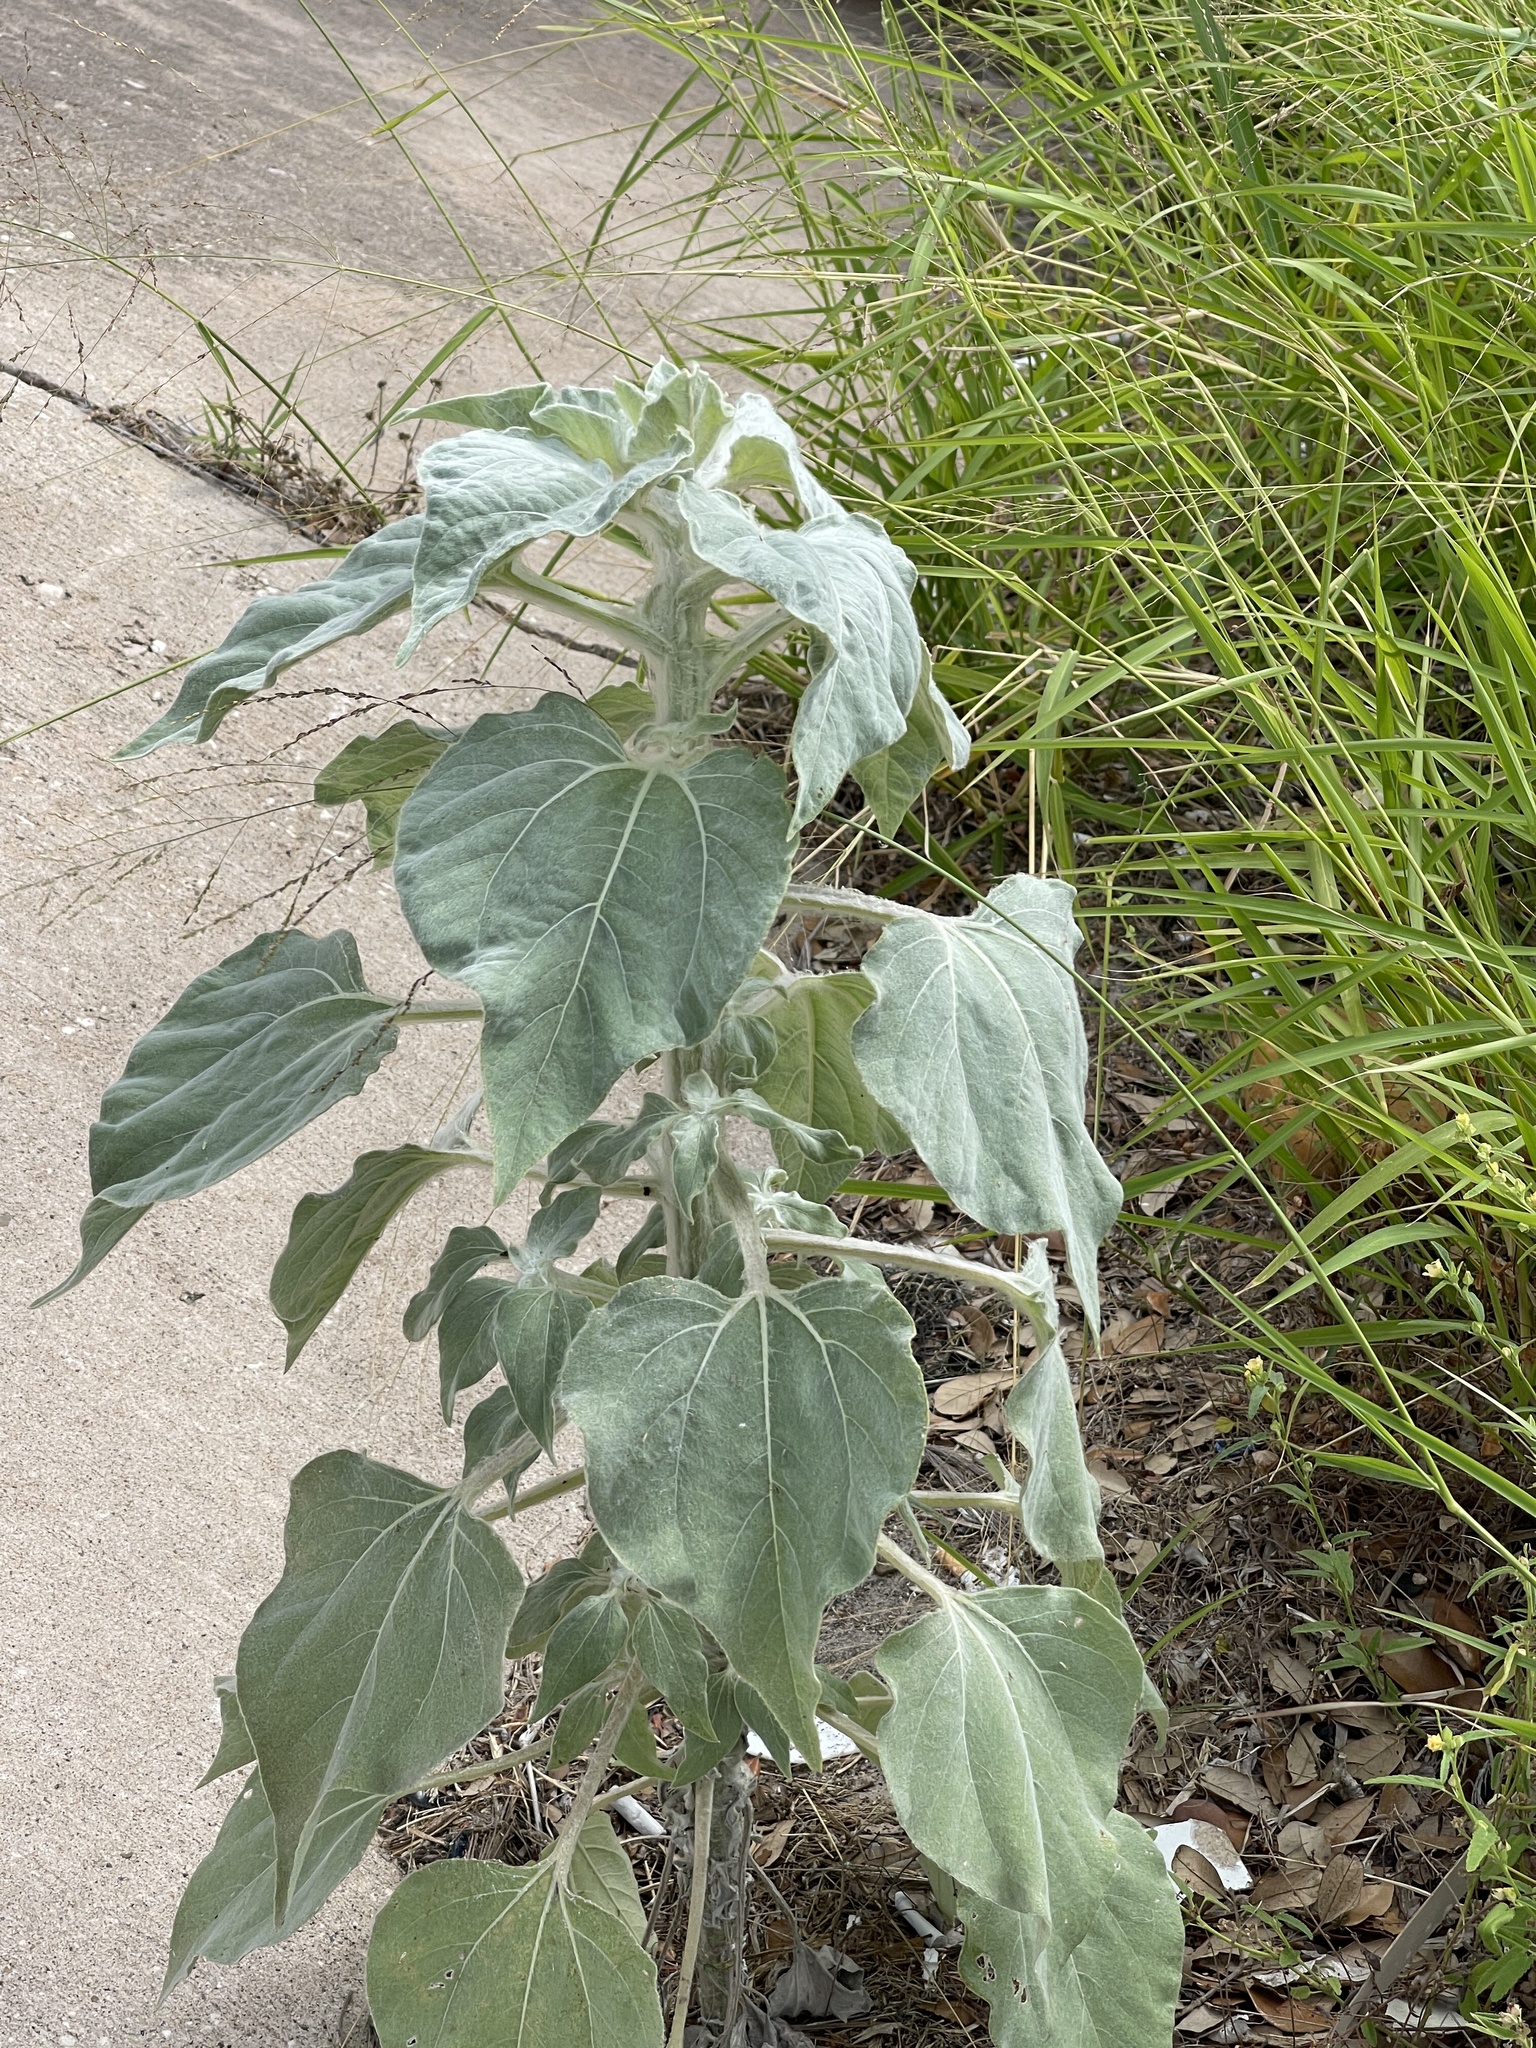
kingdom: Plantae
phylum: Tracheophyta
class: Magnoliopsida
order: Asterales
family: Asteraceae
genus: Helianthus
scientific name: Helianthus argophyllus
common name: Silverleaf sunflower
